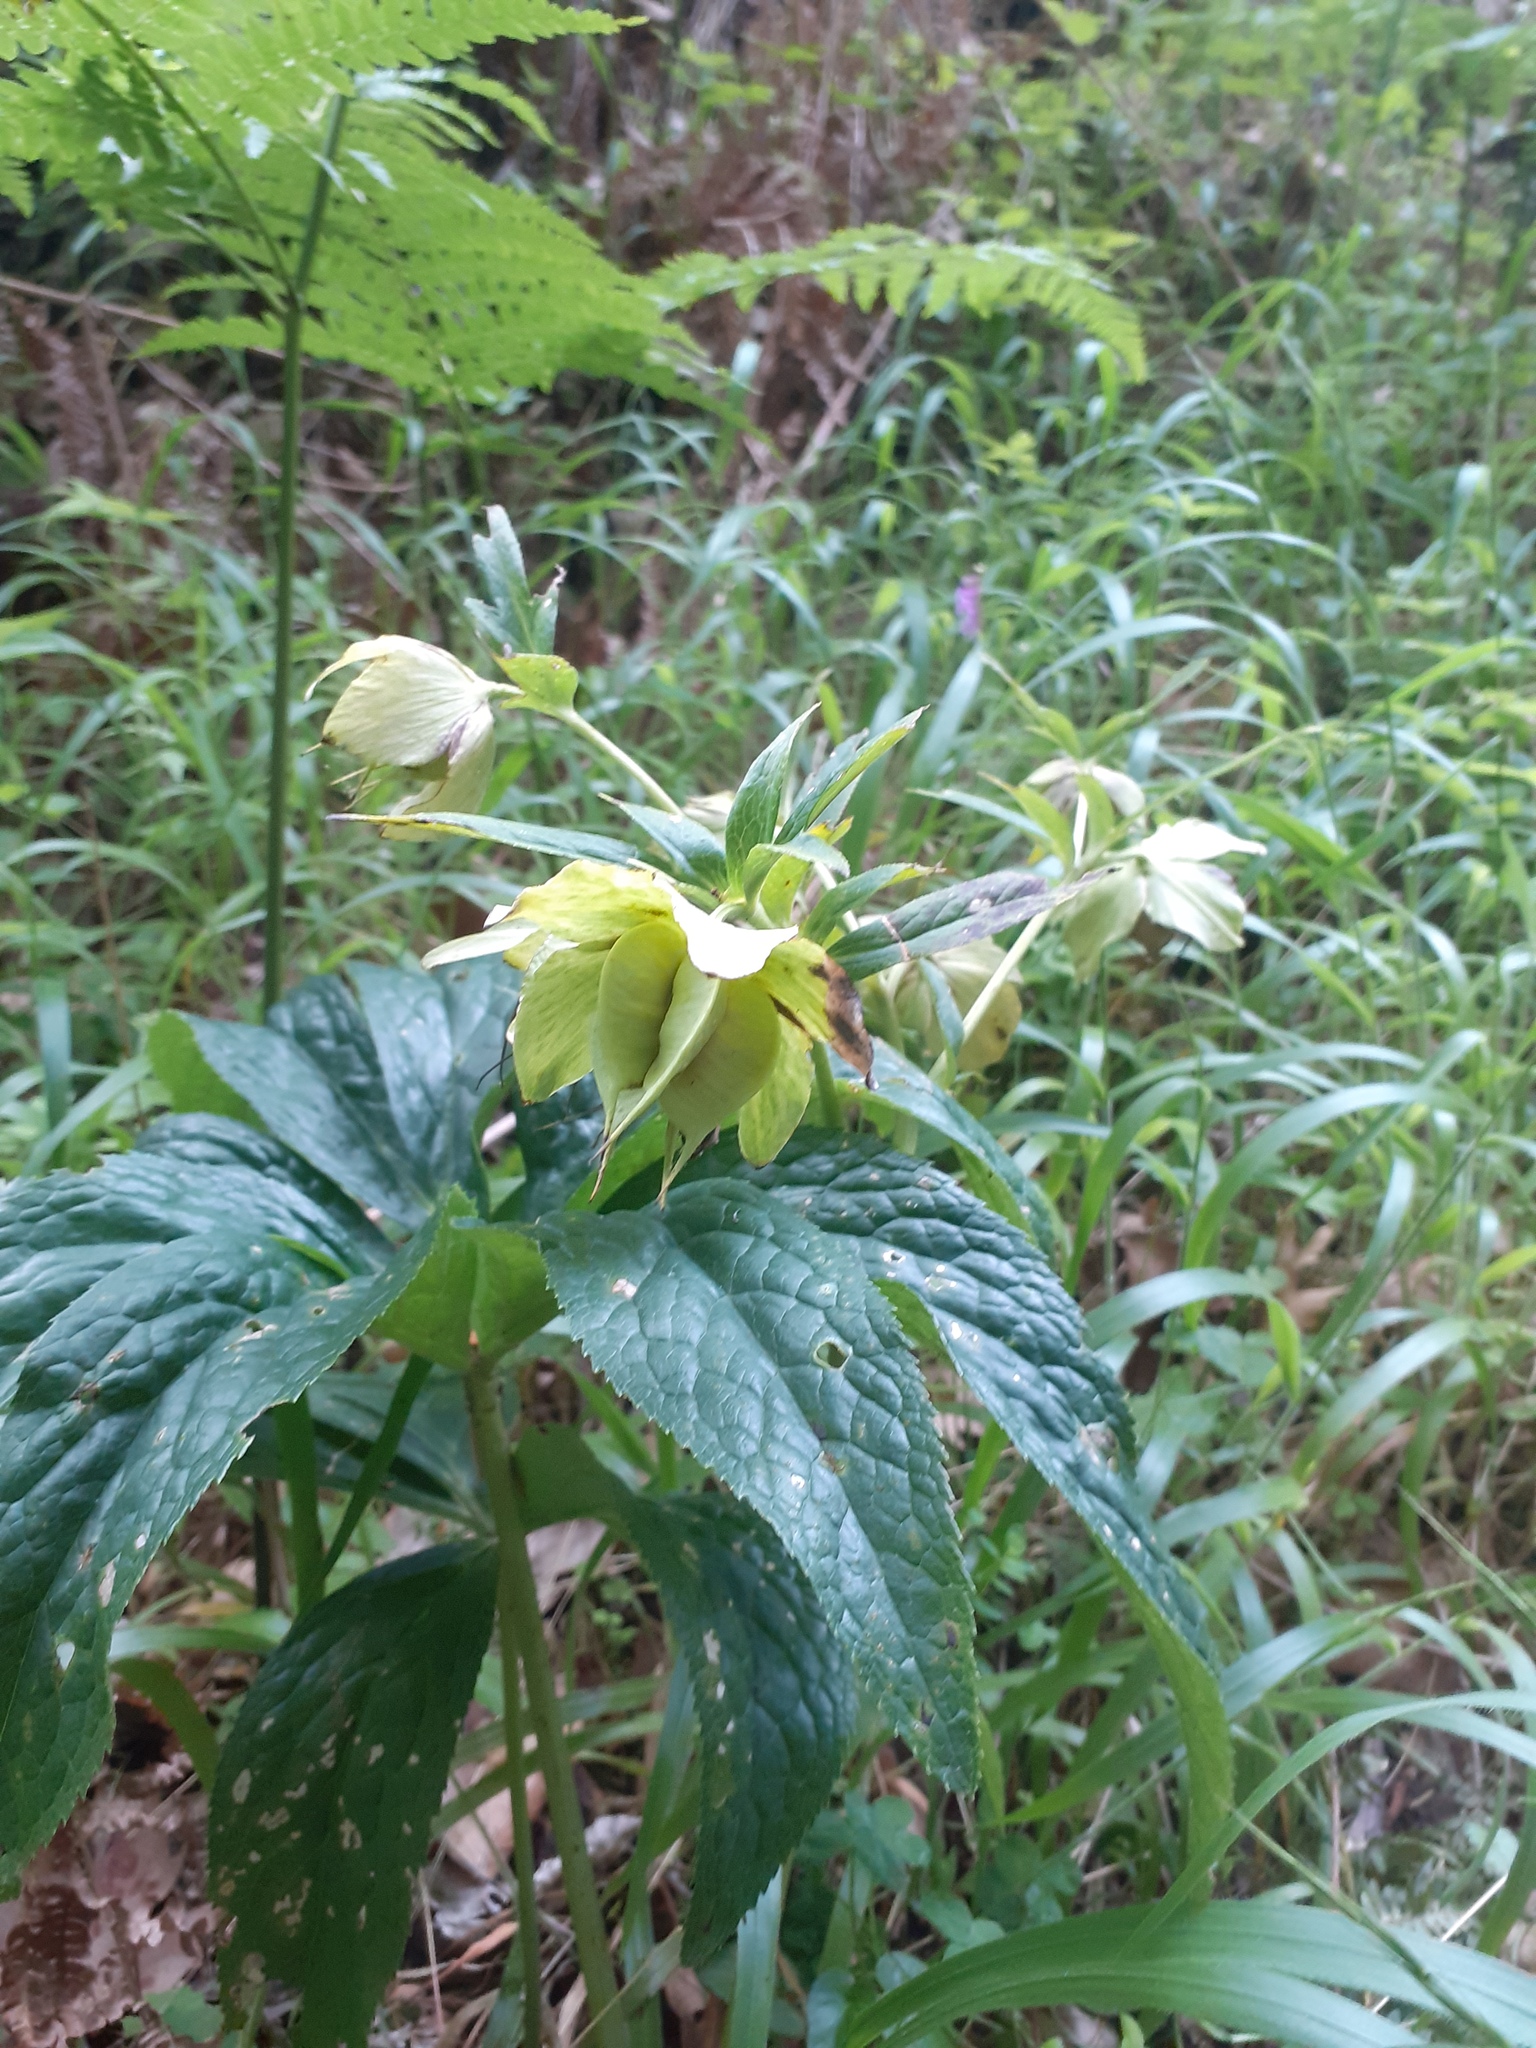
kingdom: Plantae
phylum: Tracheophyta
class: Magnoliopsida
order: Ranunculales
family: Ranunculaceae
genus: Helleborus
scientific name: Helleborus orientalis
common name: Lenten-rose
